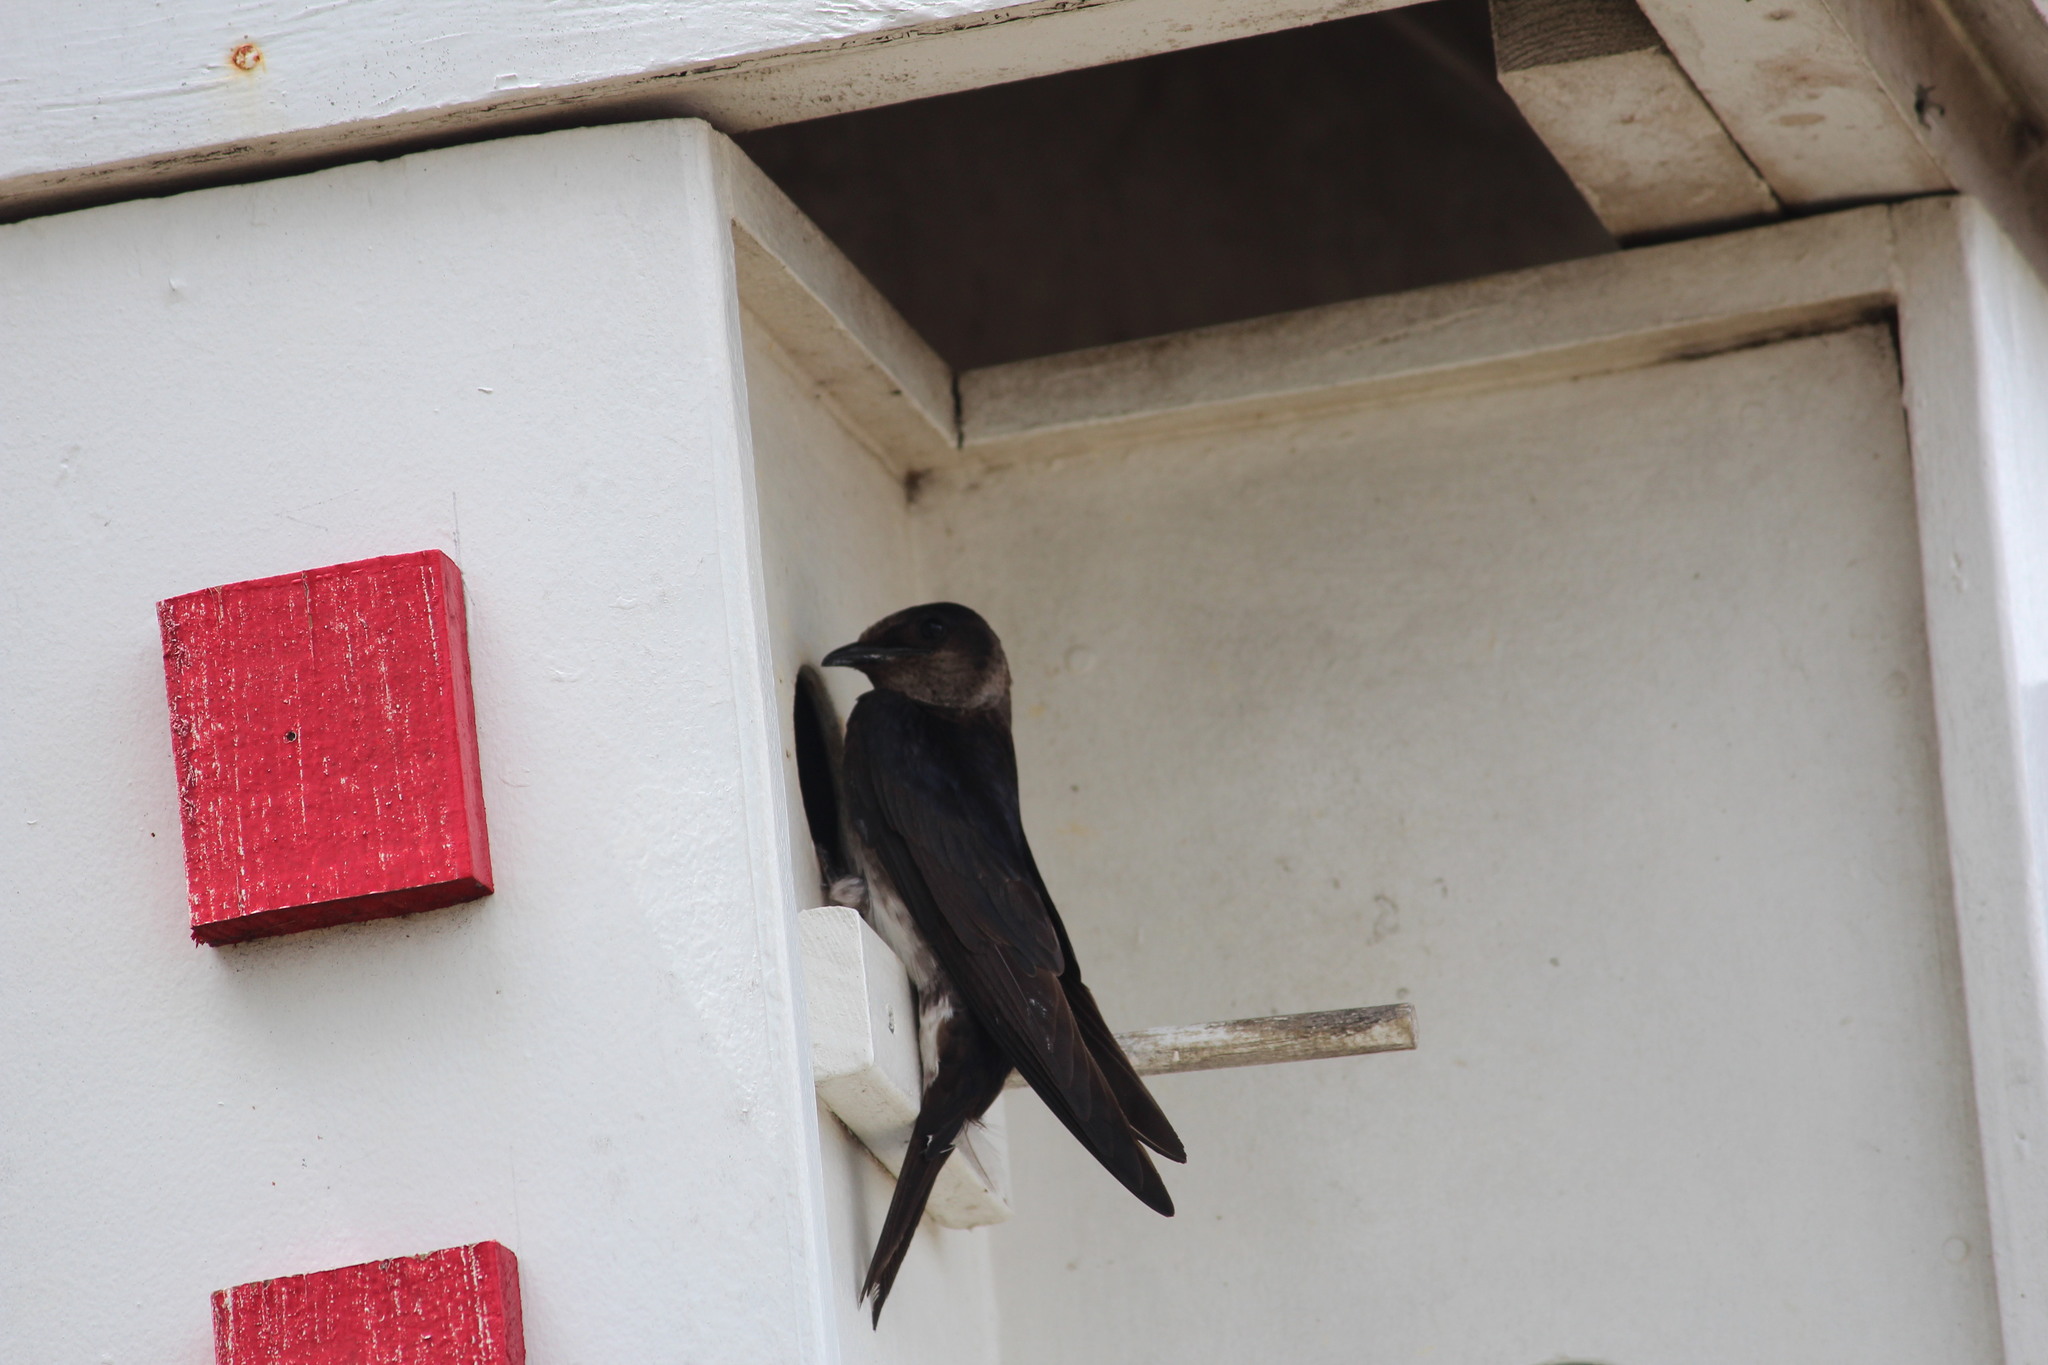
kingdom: Animalia
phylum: Chordata
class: Aves
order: Passeriformes
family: Hirundinidae
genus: Progne
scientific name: Progne subis
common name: Purple martin
